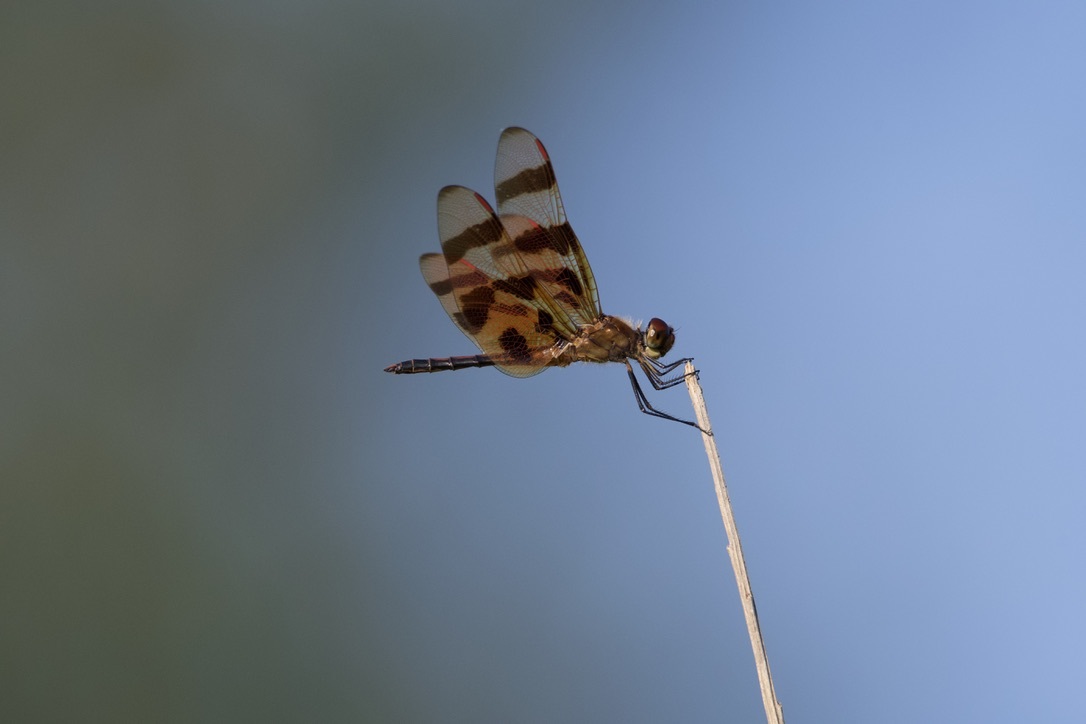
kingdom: Animalia
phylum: Arthropoda
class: Insecta
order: Odonata
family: Libellulidae
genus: Celithemis
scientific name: Celithemis eponina
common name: Halloween pennant
